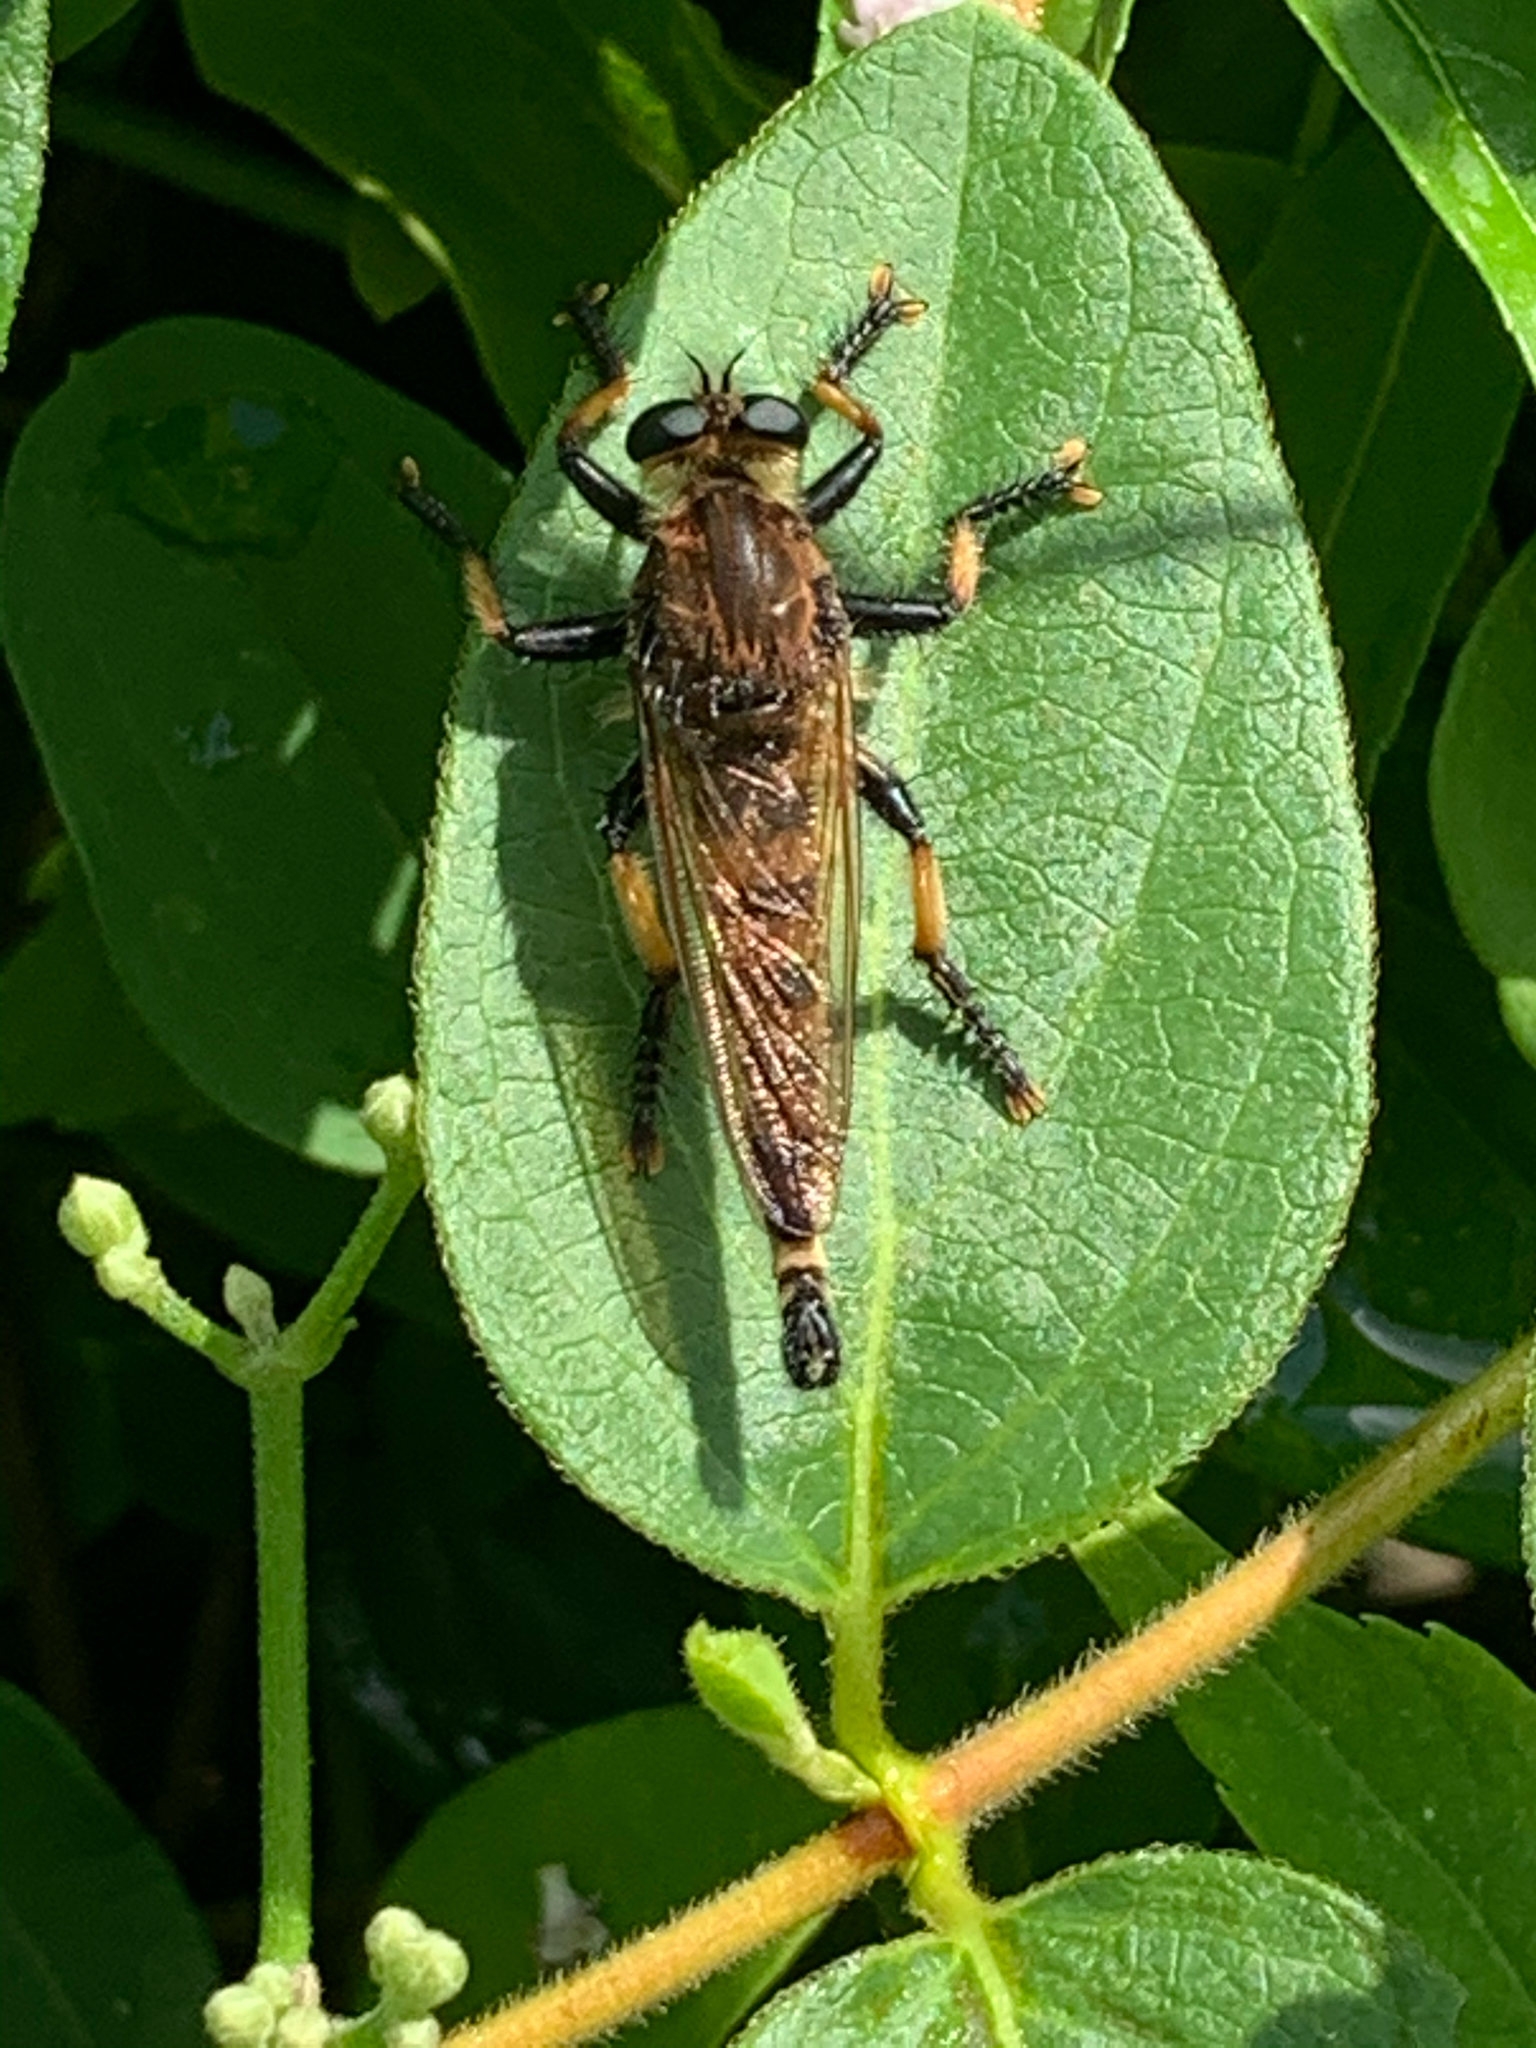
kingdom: Animalia
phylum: Arthropoda
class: Insecta
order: Diptera
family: Asilidae
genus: Promachus
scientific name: Promachus rufipes
